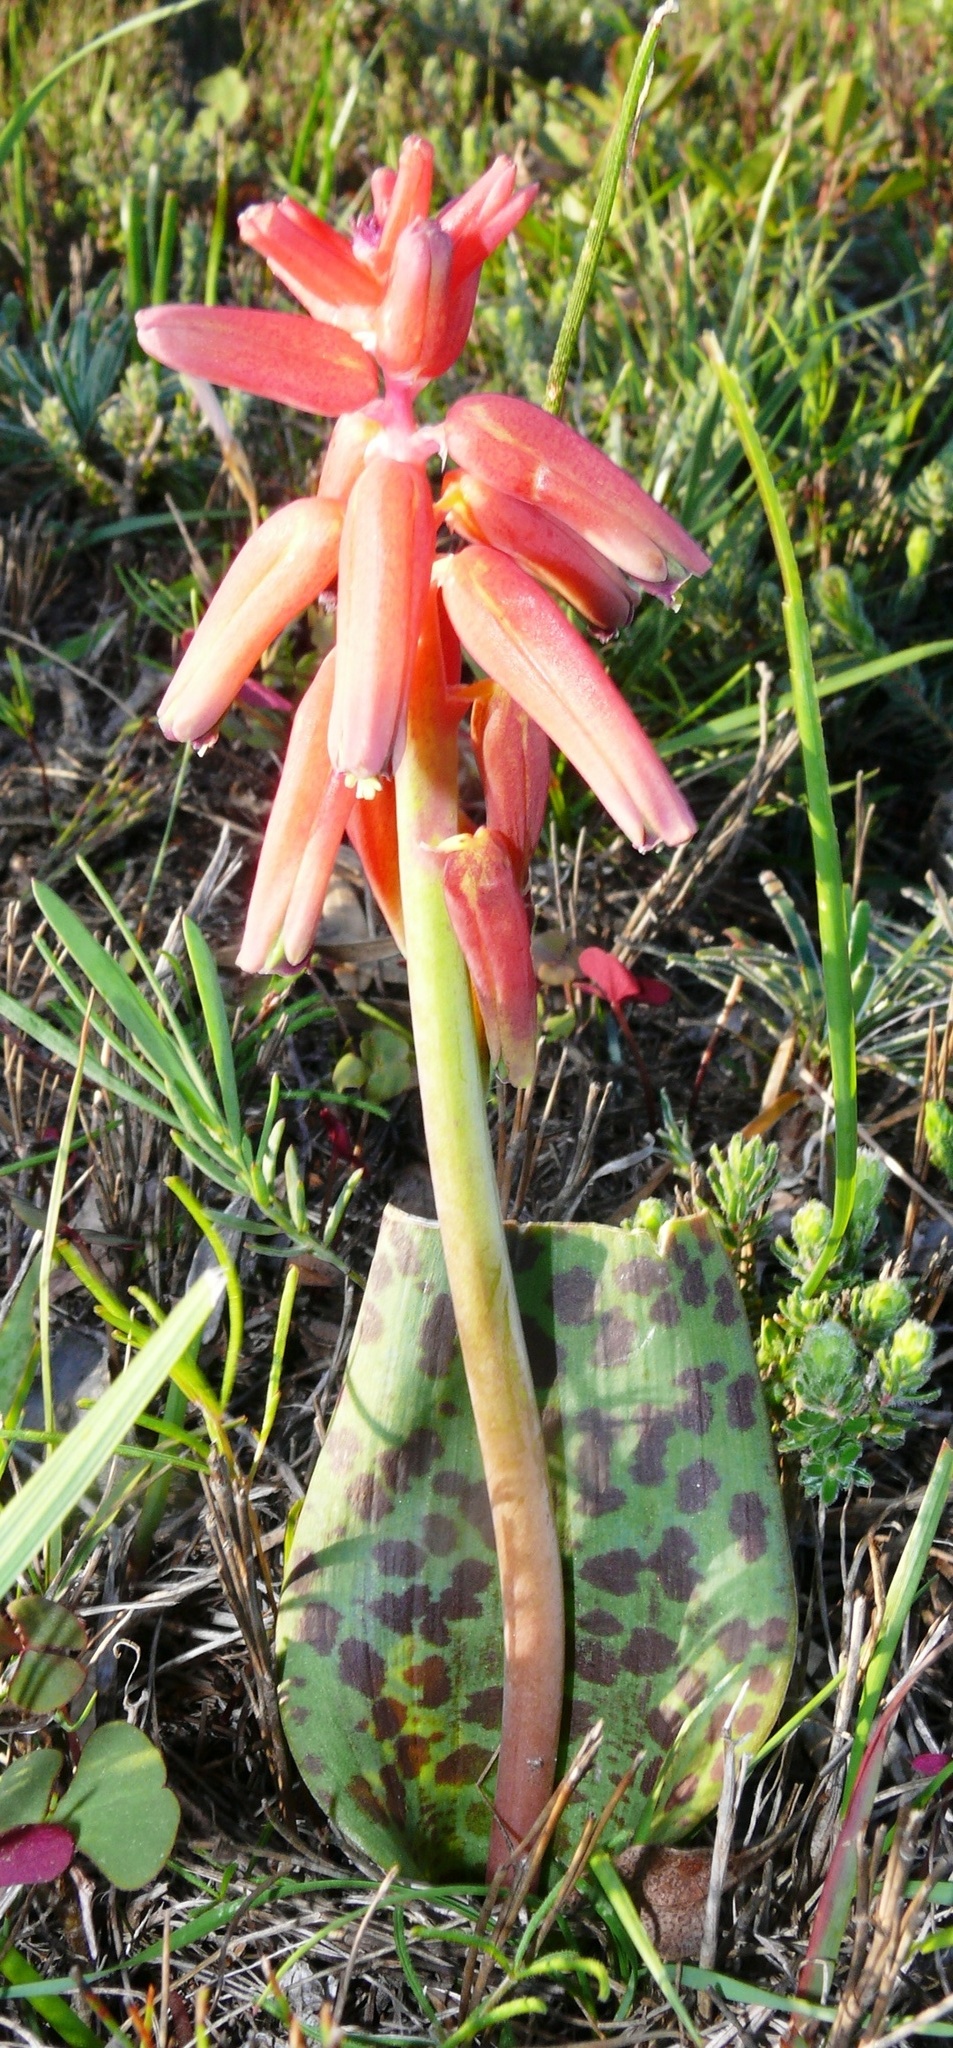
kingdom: Plantae
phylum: Tracheophyta
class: Liliopsida
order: Asparagales
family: Asparagaceae
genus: Lachenalia
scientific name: Lachenalia bulbifera
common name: Red lachenalia
